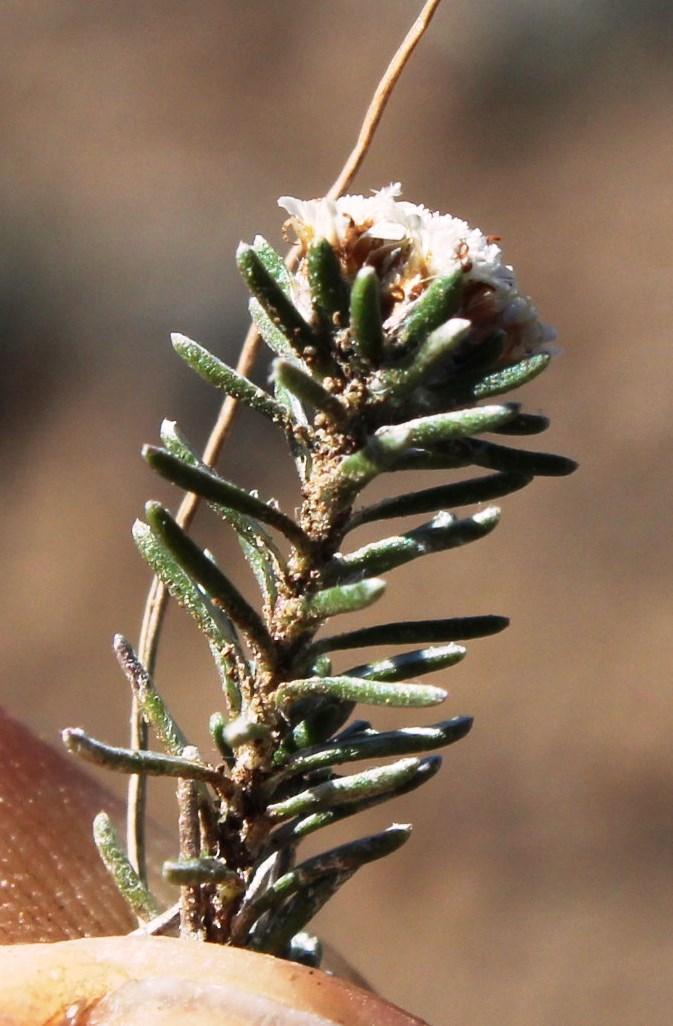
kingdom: Plantae
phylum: Tracheophyta
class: Magnoliopsida
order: Asterales
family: Asteraceae
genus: Ifloga
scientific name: Ifloga decumbens
